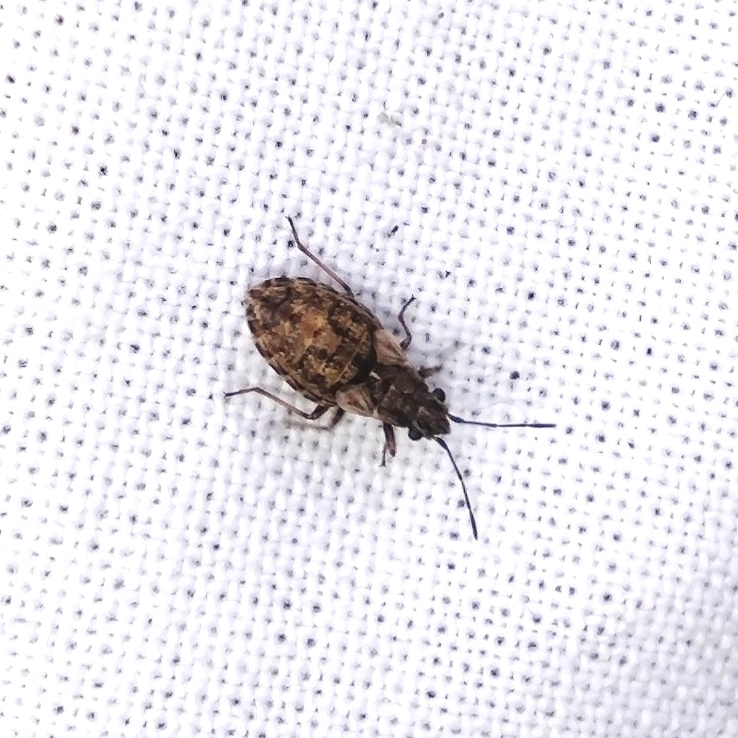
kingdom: Animalia
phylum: Arthropoda
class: Insecta
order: Hemiptera
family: Lygaeidae
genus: Nithecus
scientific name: Nithecus jacobaeae
